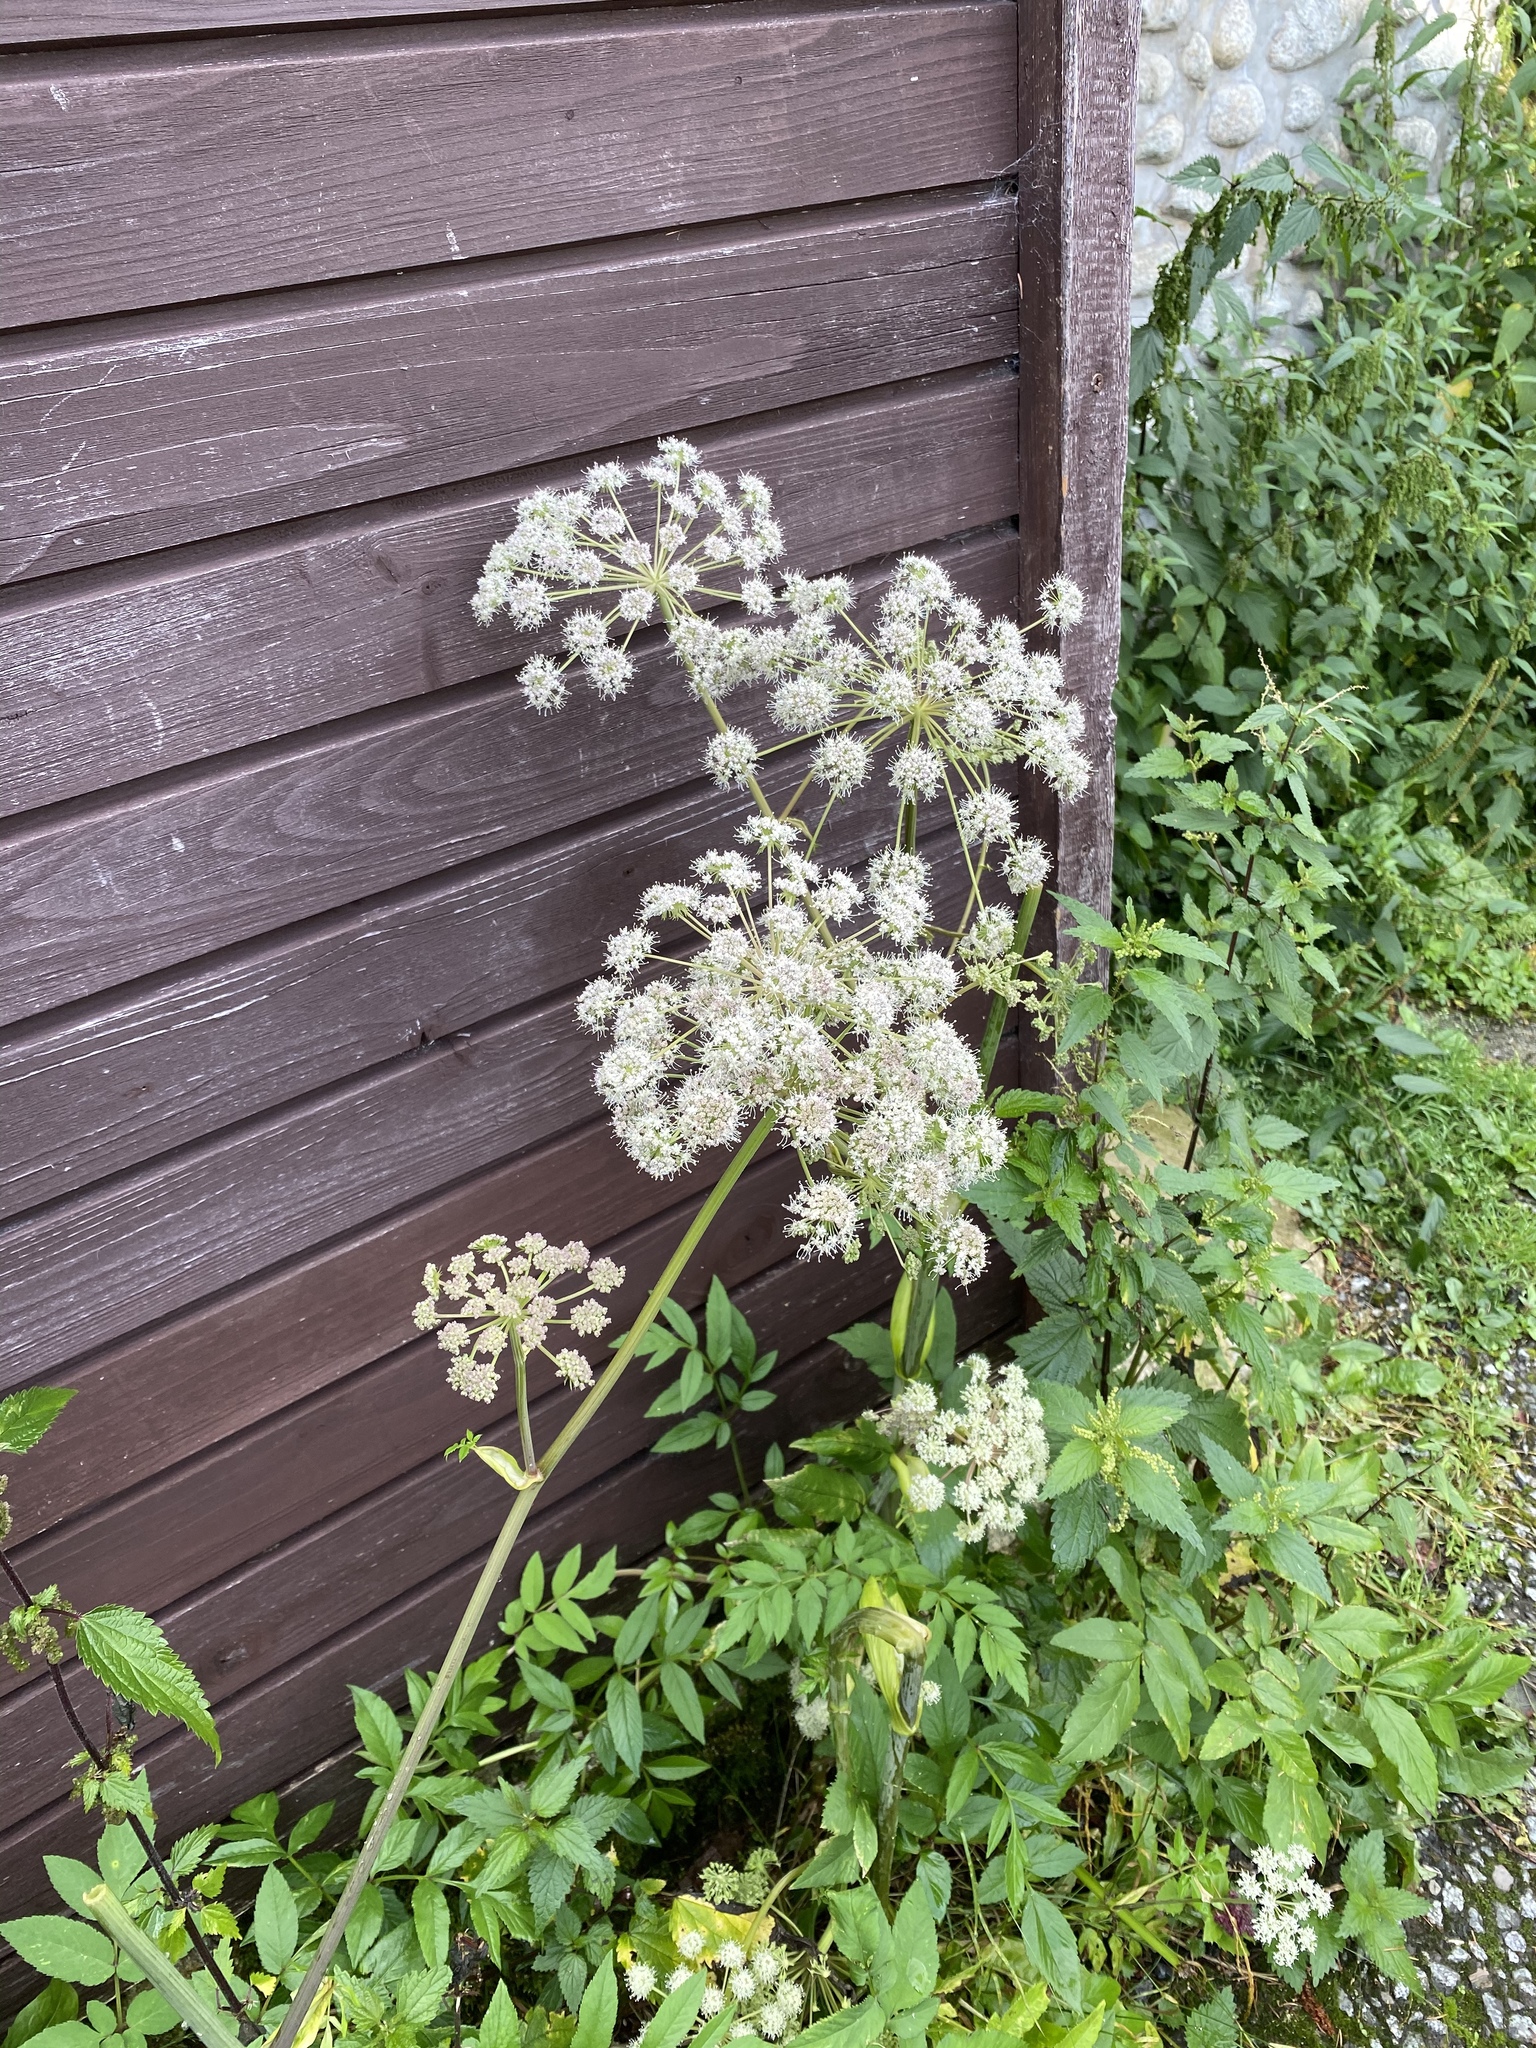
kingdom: Plantae
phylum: Tracheophyta
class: Magnoliopsida
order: Apiales
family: Apiaceae
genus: Angelica
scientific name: Angelica sylvestris
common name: Wild angelica
